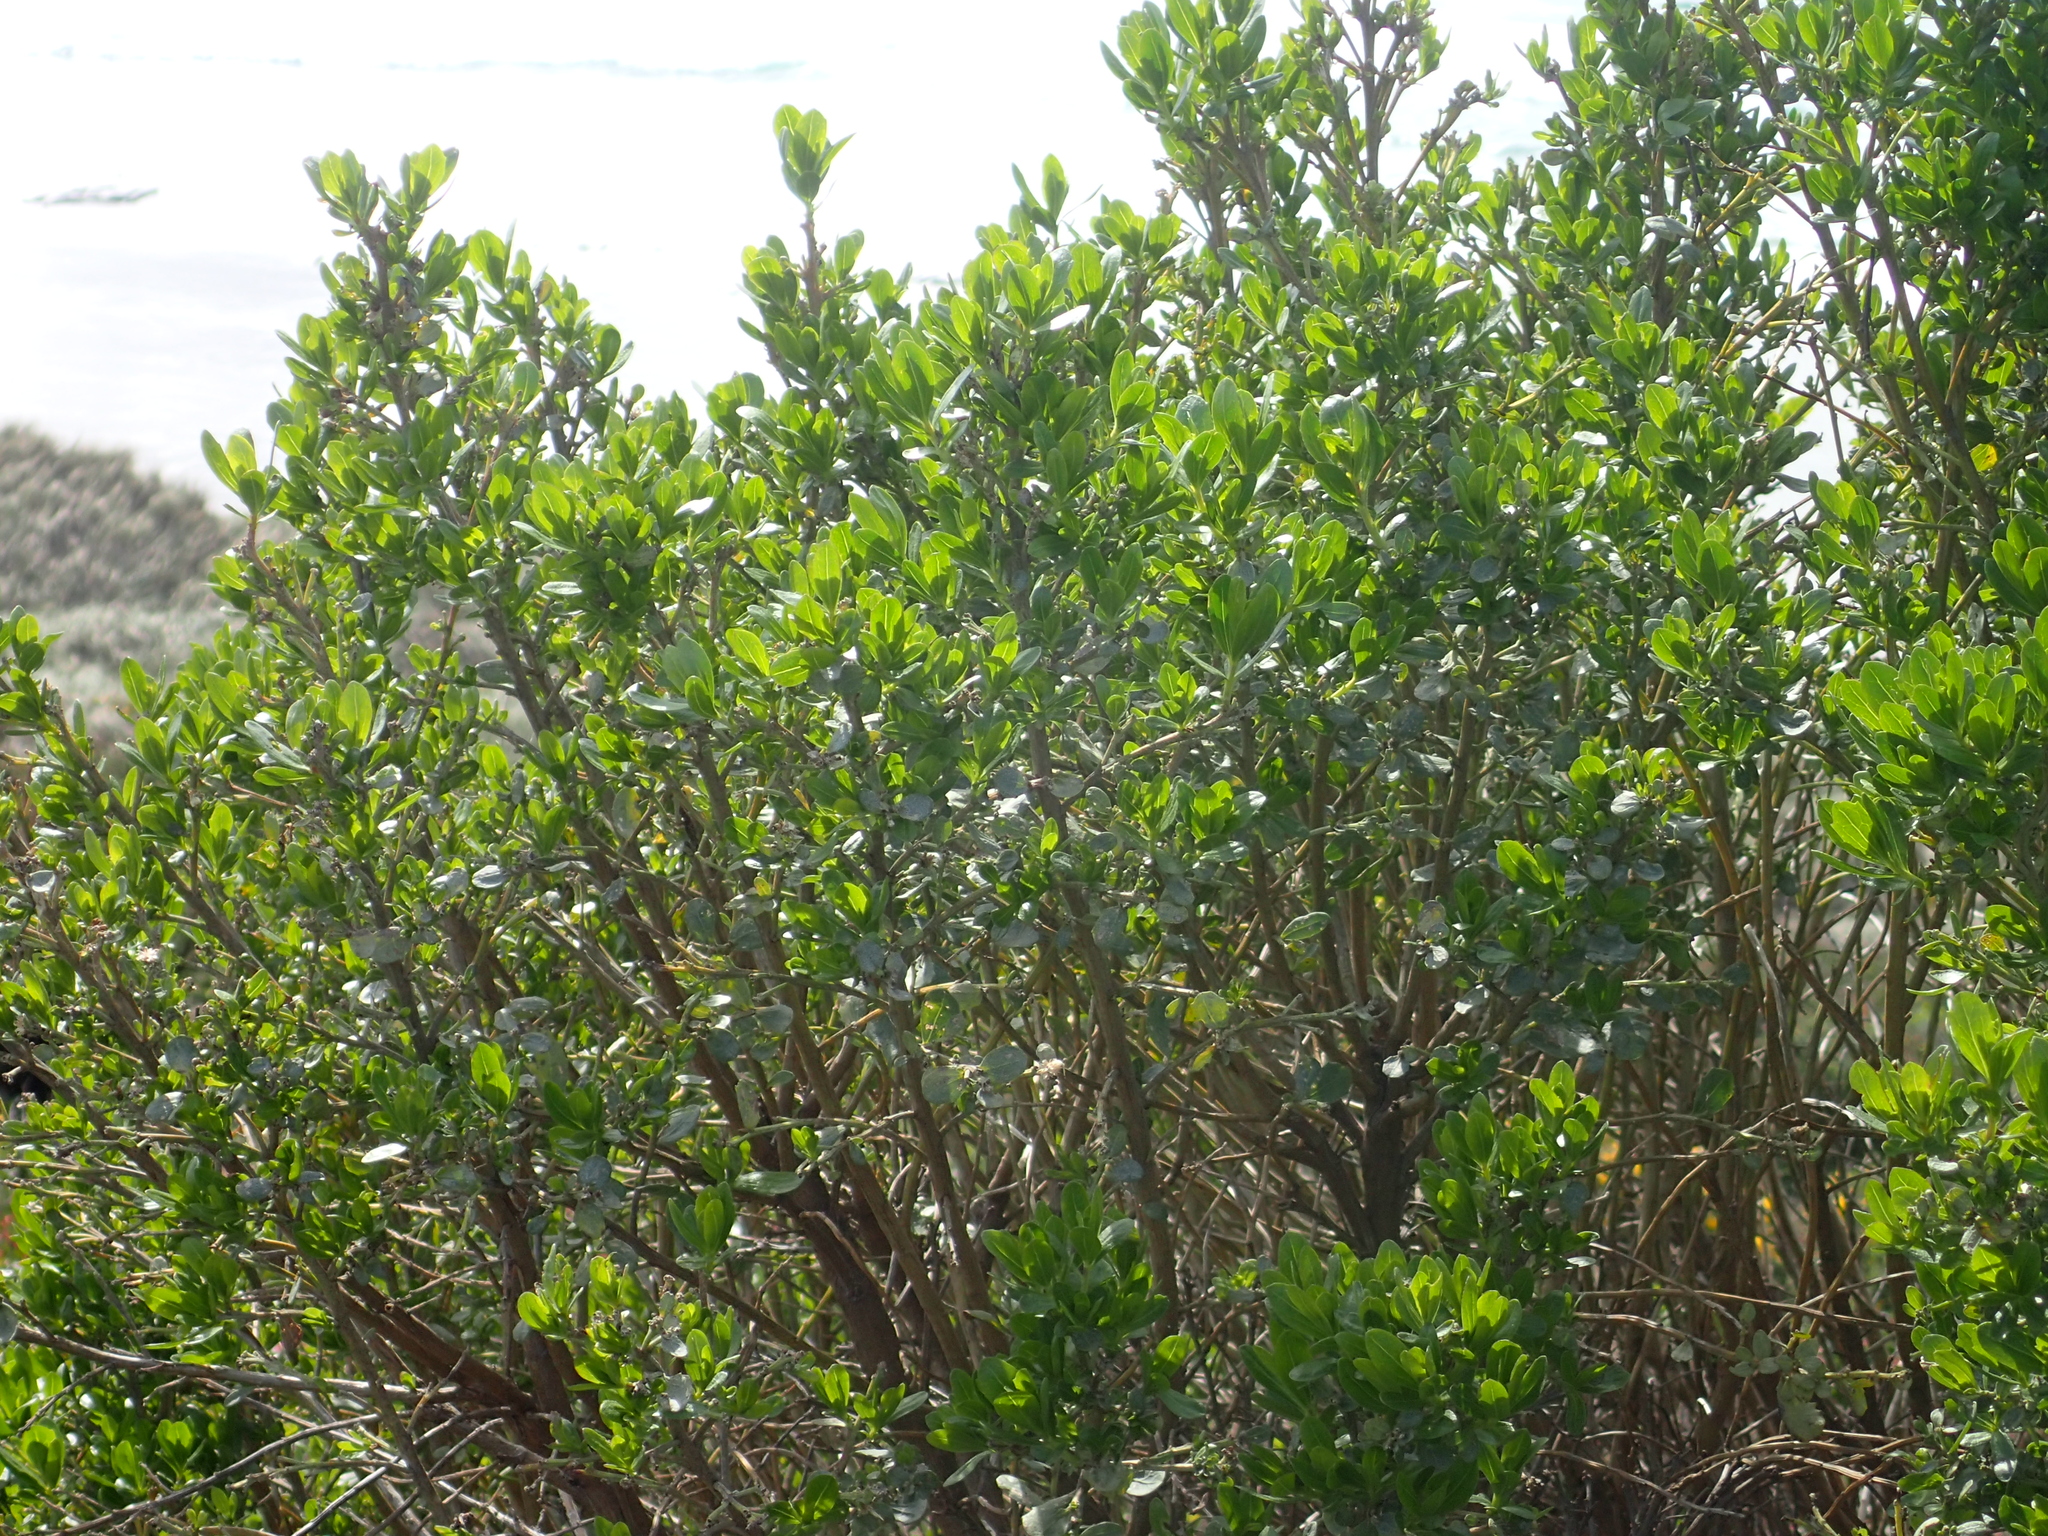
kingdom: Plantae
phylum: Tracheophyta
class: Magnoliopsida
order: Asterales
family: Asteraceae
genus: Baccharis
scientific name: Baccharis pilularis
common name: Coyotebrush
